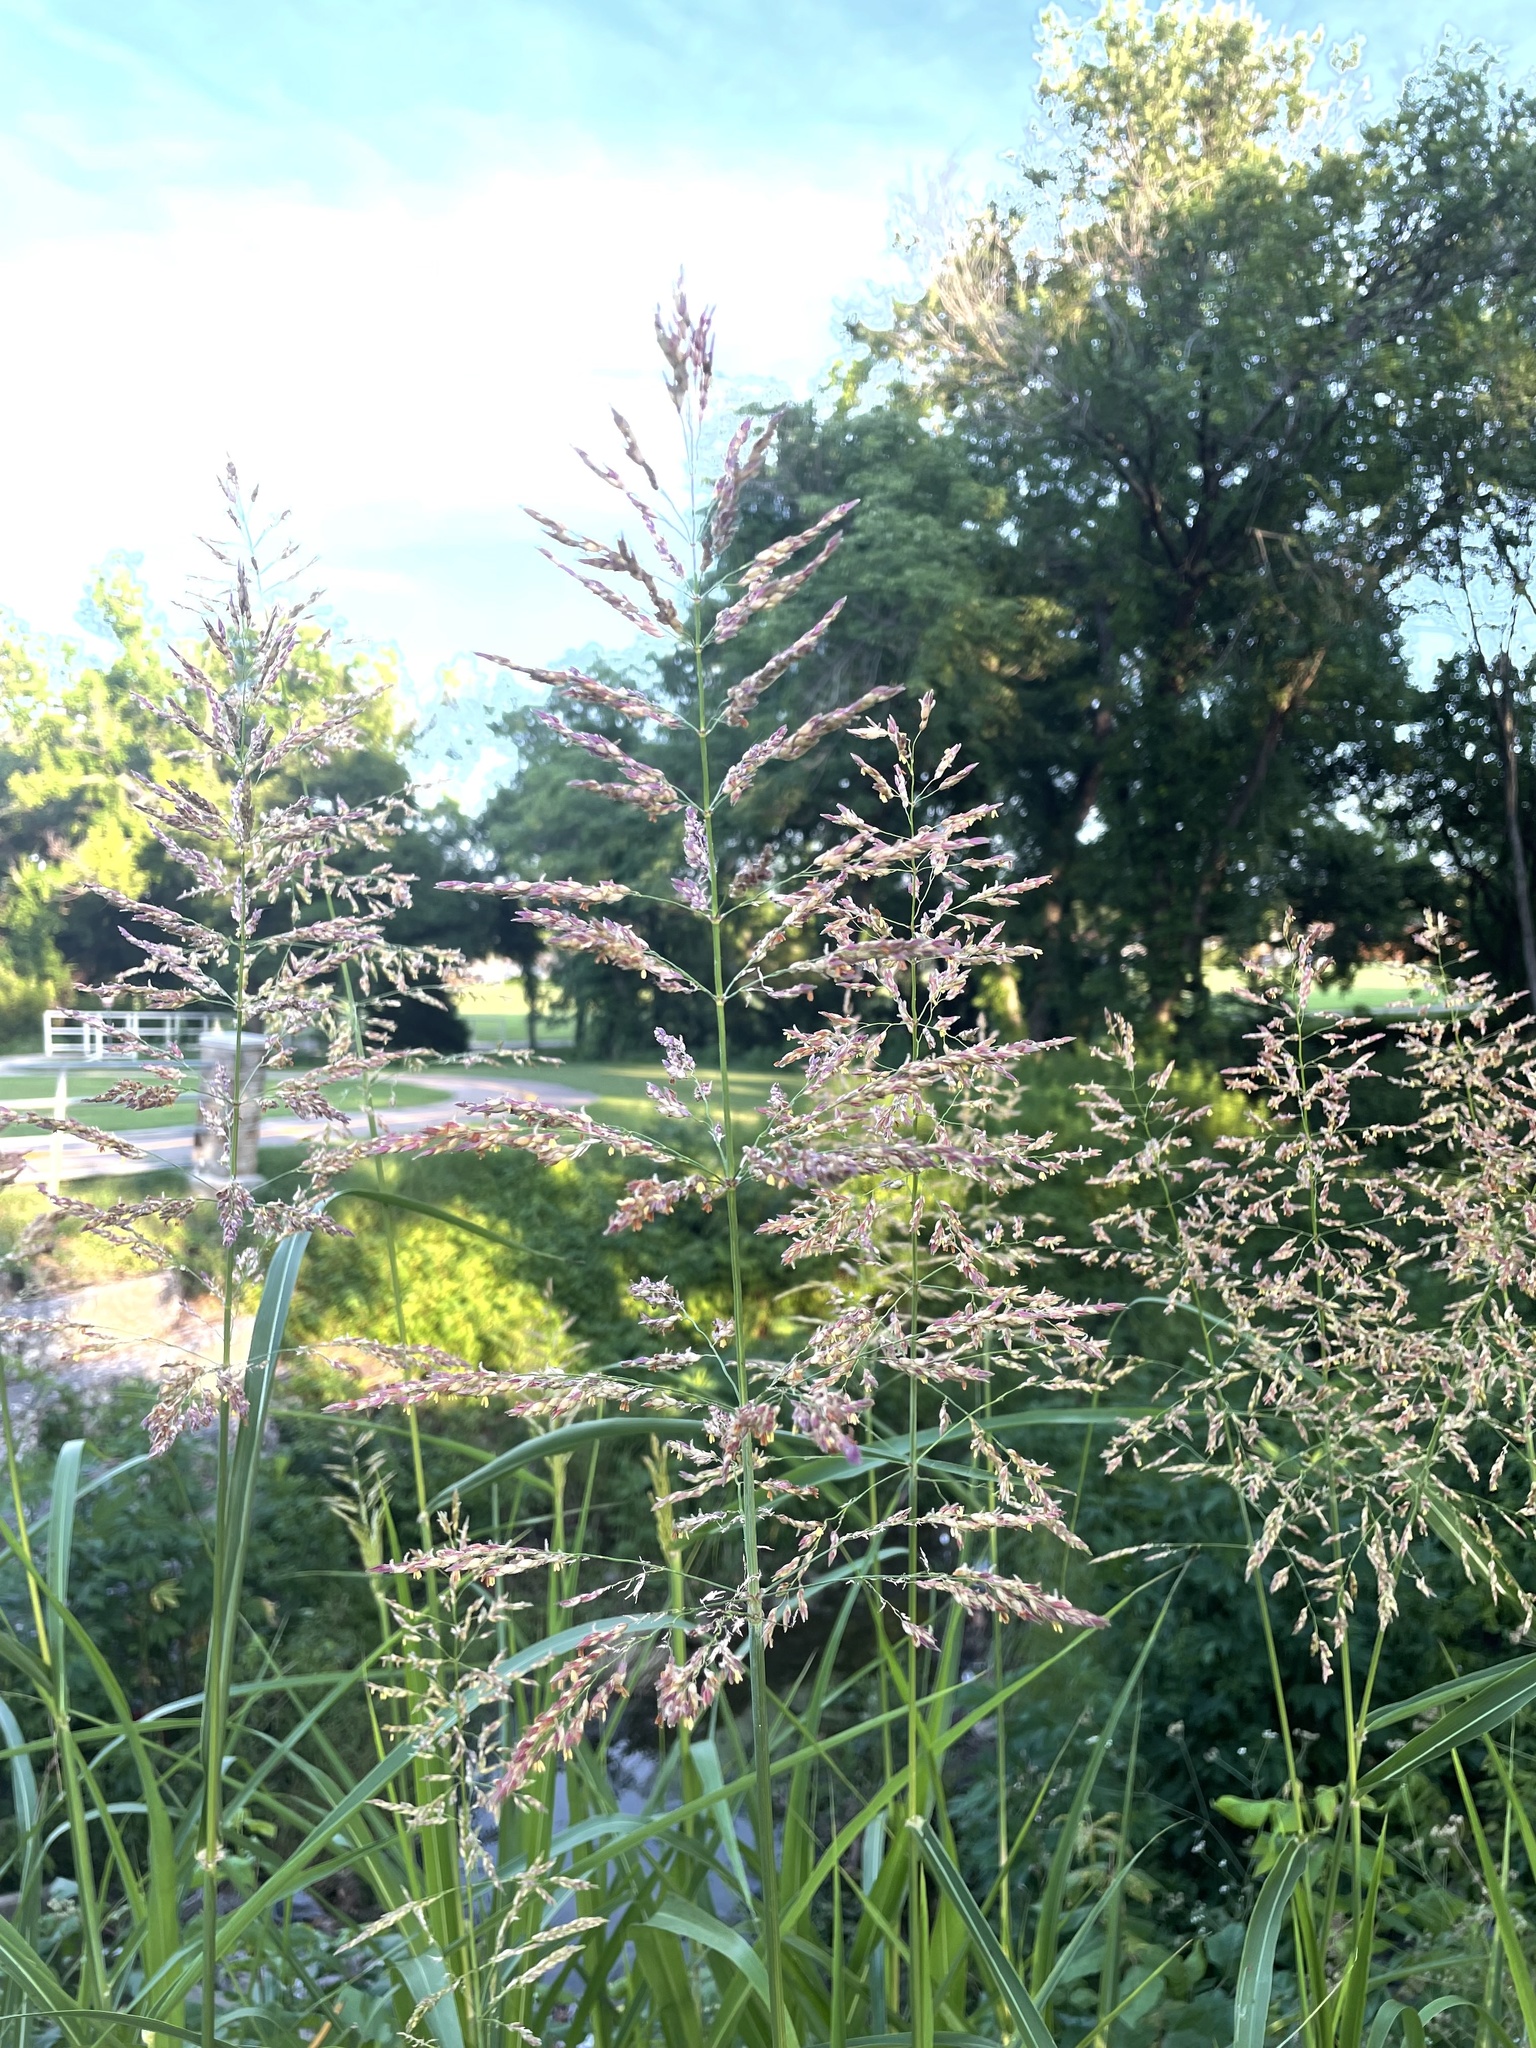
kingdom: Plantae
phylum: Tracheophyta
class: Liliopsida
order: Poales
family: Poaceae
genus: Sorghum
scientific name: Sorghum halepense
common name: Johnson-grass
